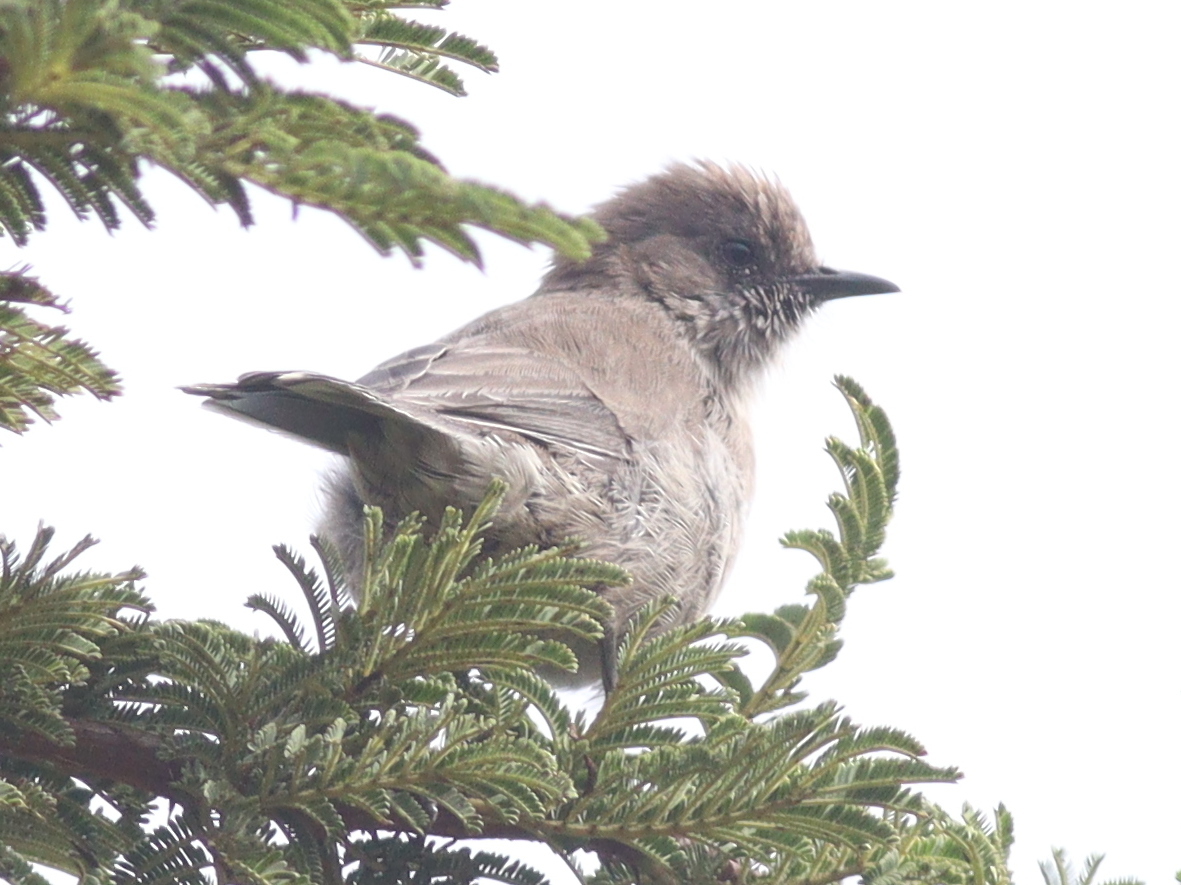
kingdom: Animalia
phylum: Chordata
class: Aves
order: Passeriformes
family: Sylviidae
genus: Sylvia
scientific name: Sylvia lugens
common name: Brown parisoma
